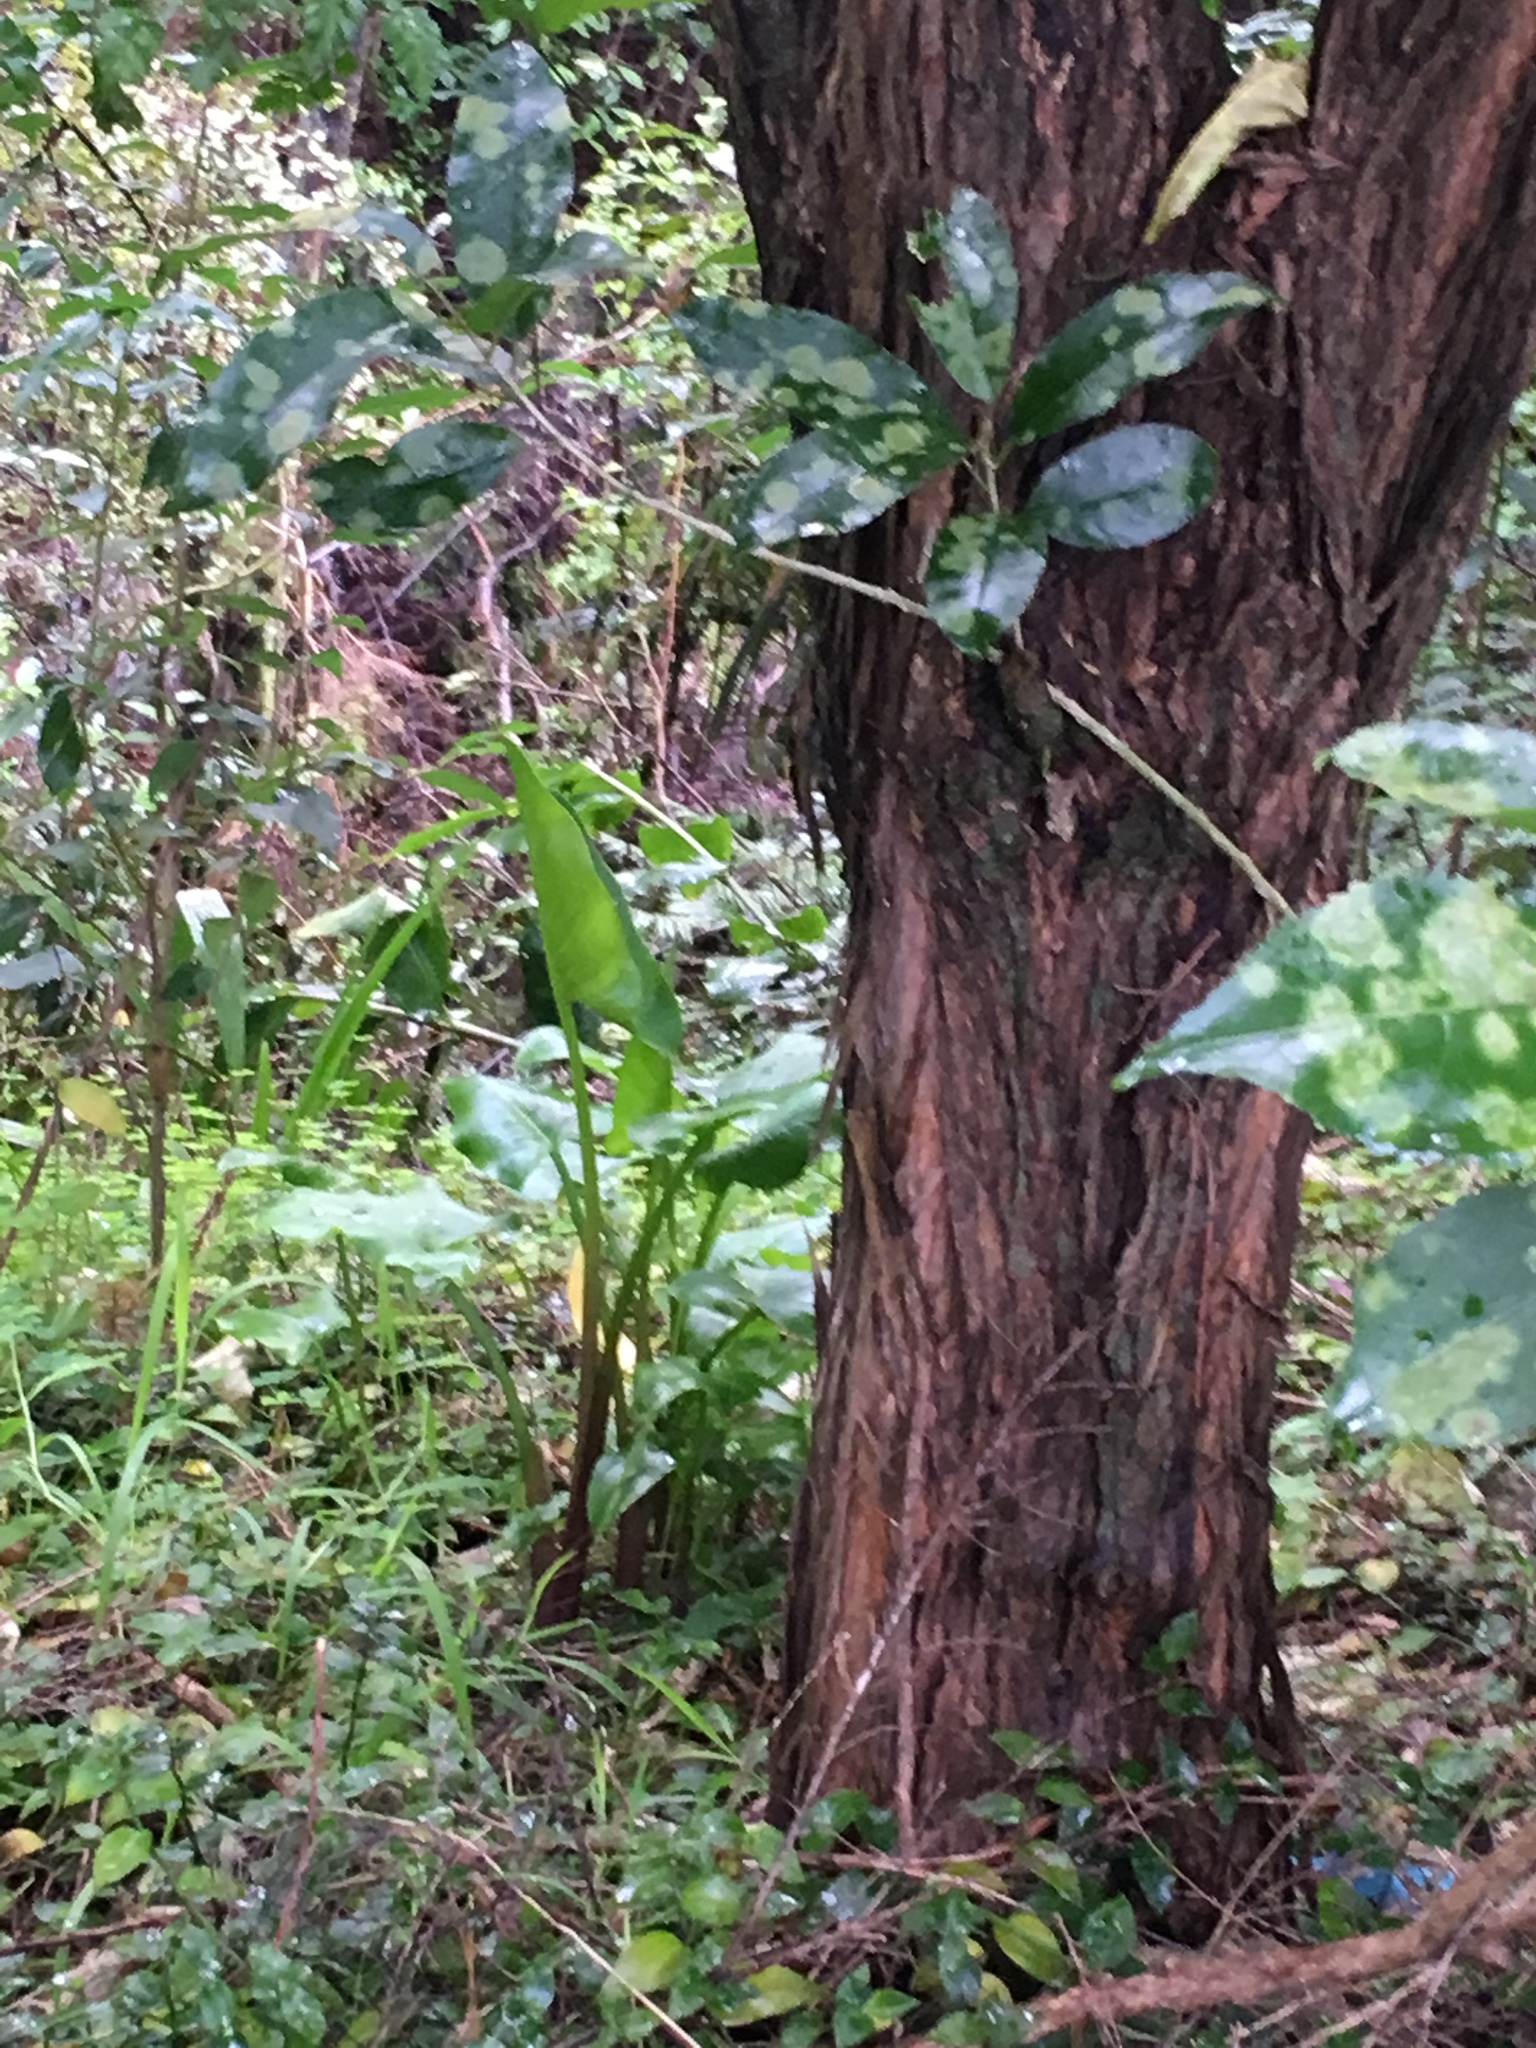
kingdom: Plantae
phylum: Tracheophyta
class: Magnoliopsida
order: Malpighiales
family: Violaceae
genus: Melicytus
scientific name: Melicytus ramiflorus
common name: Mahoe
